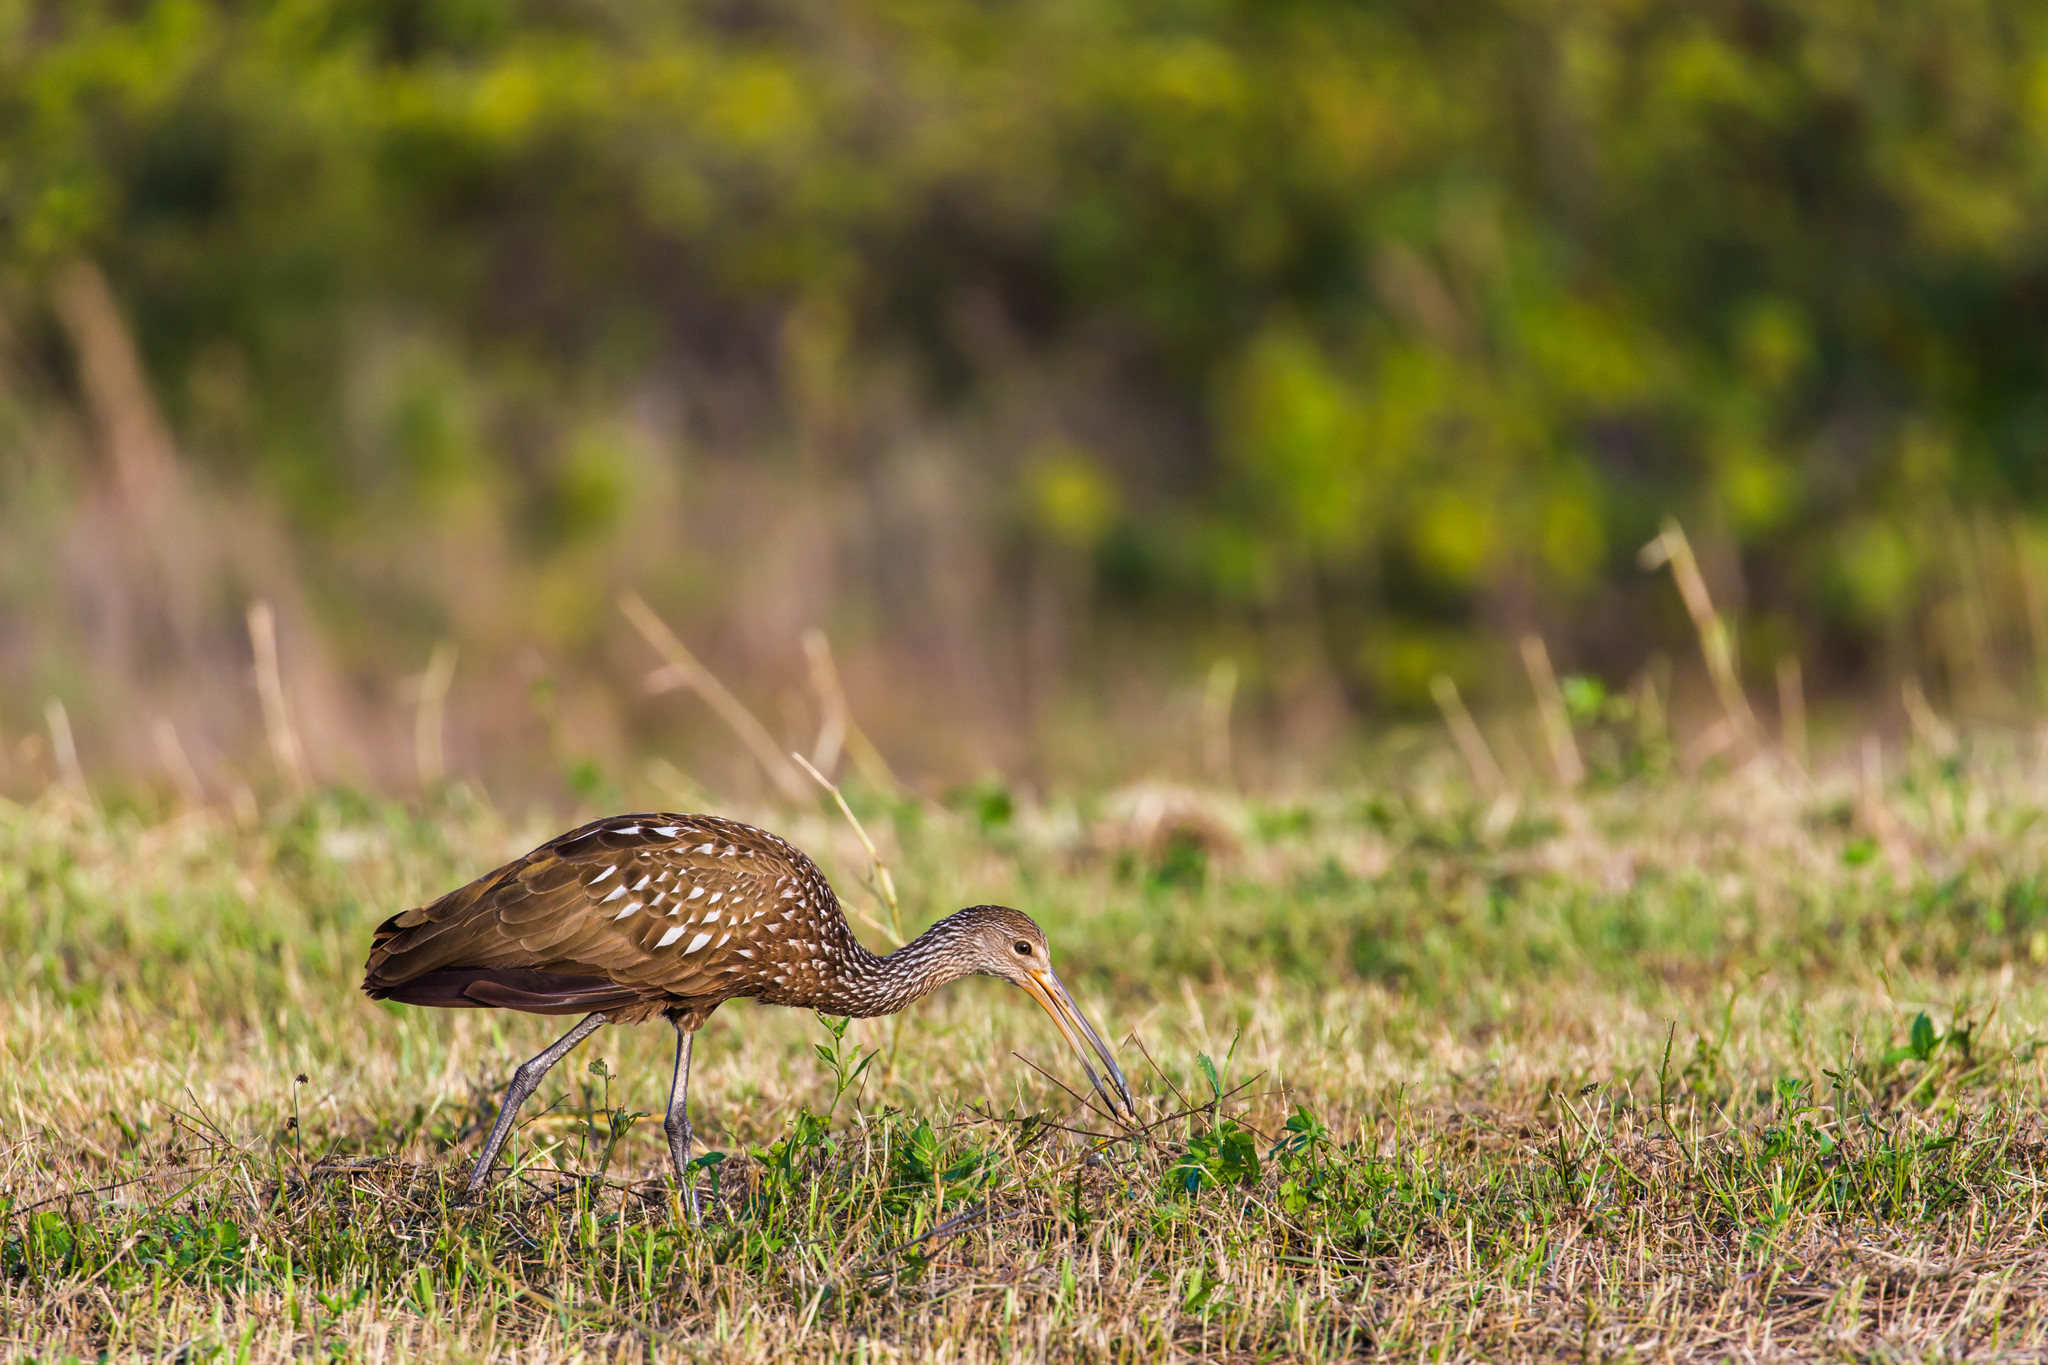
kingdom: Animalia
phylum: Chordata
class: Aves
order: Gruiformes
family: Aramidae
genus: Aramus
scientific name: Aramus guarauna
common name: Limpkin
